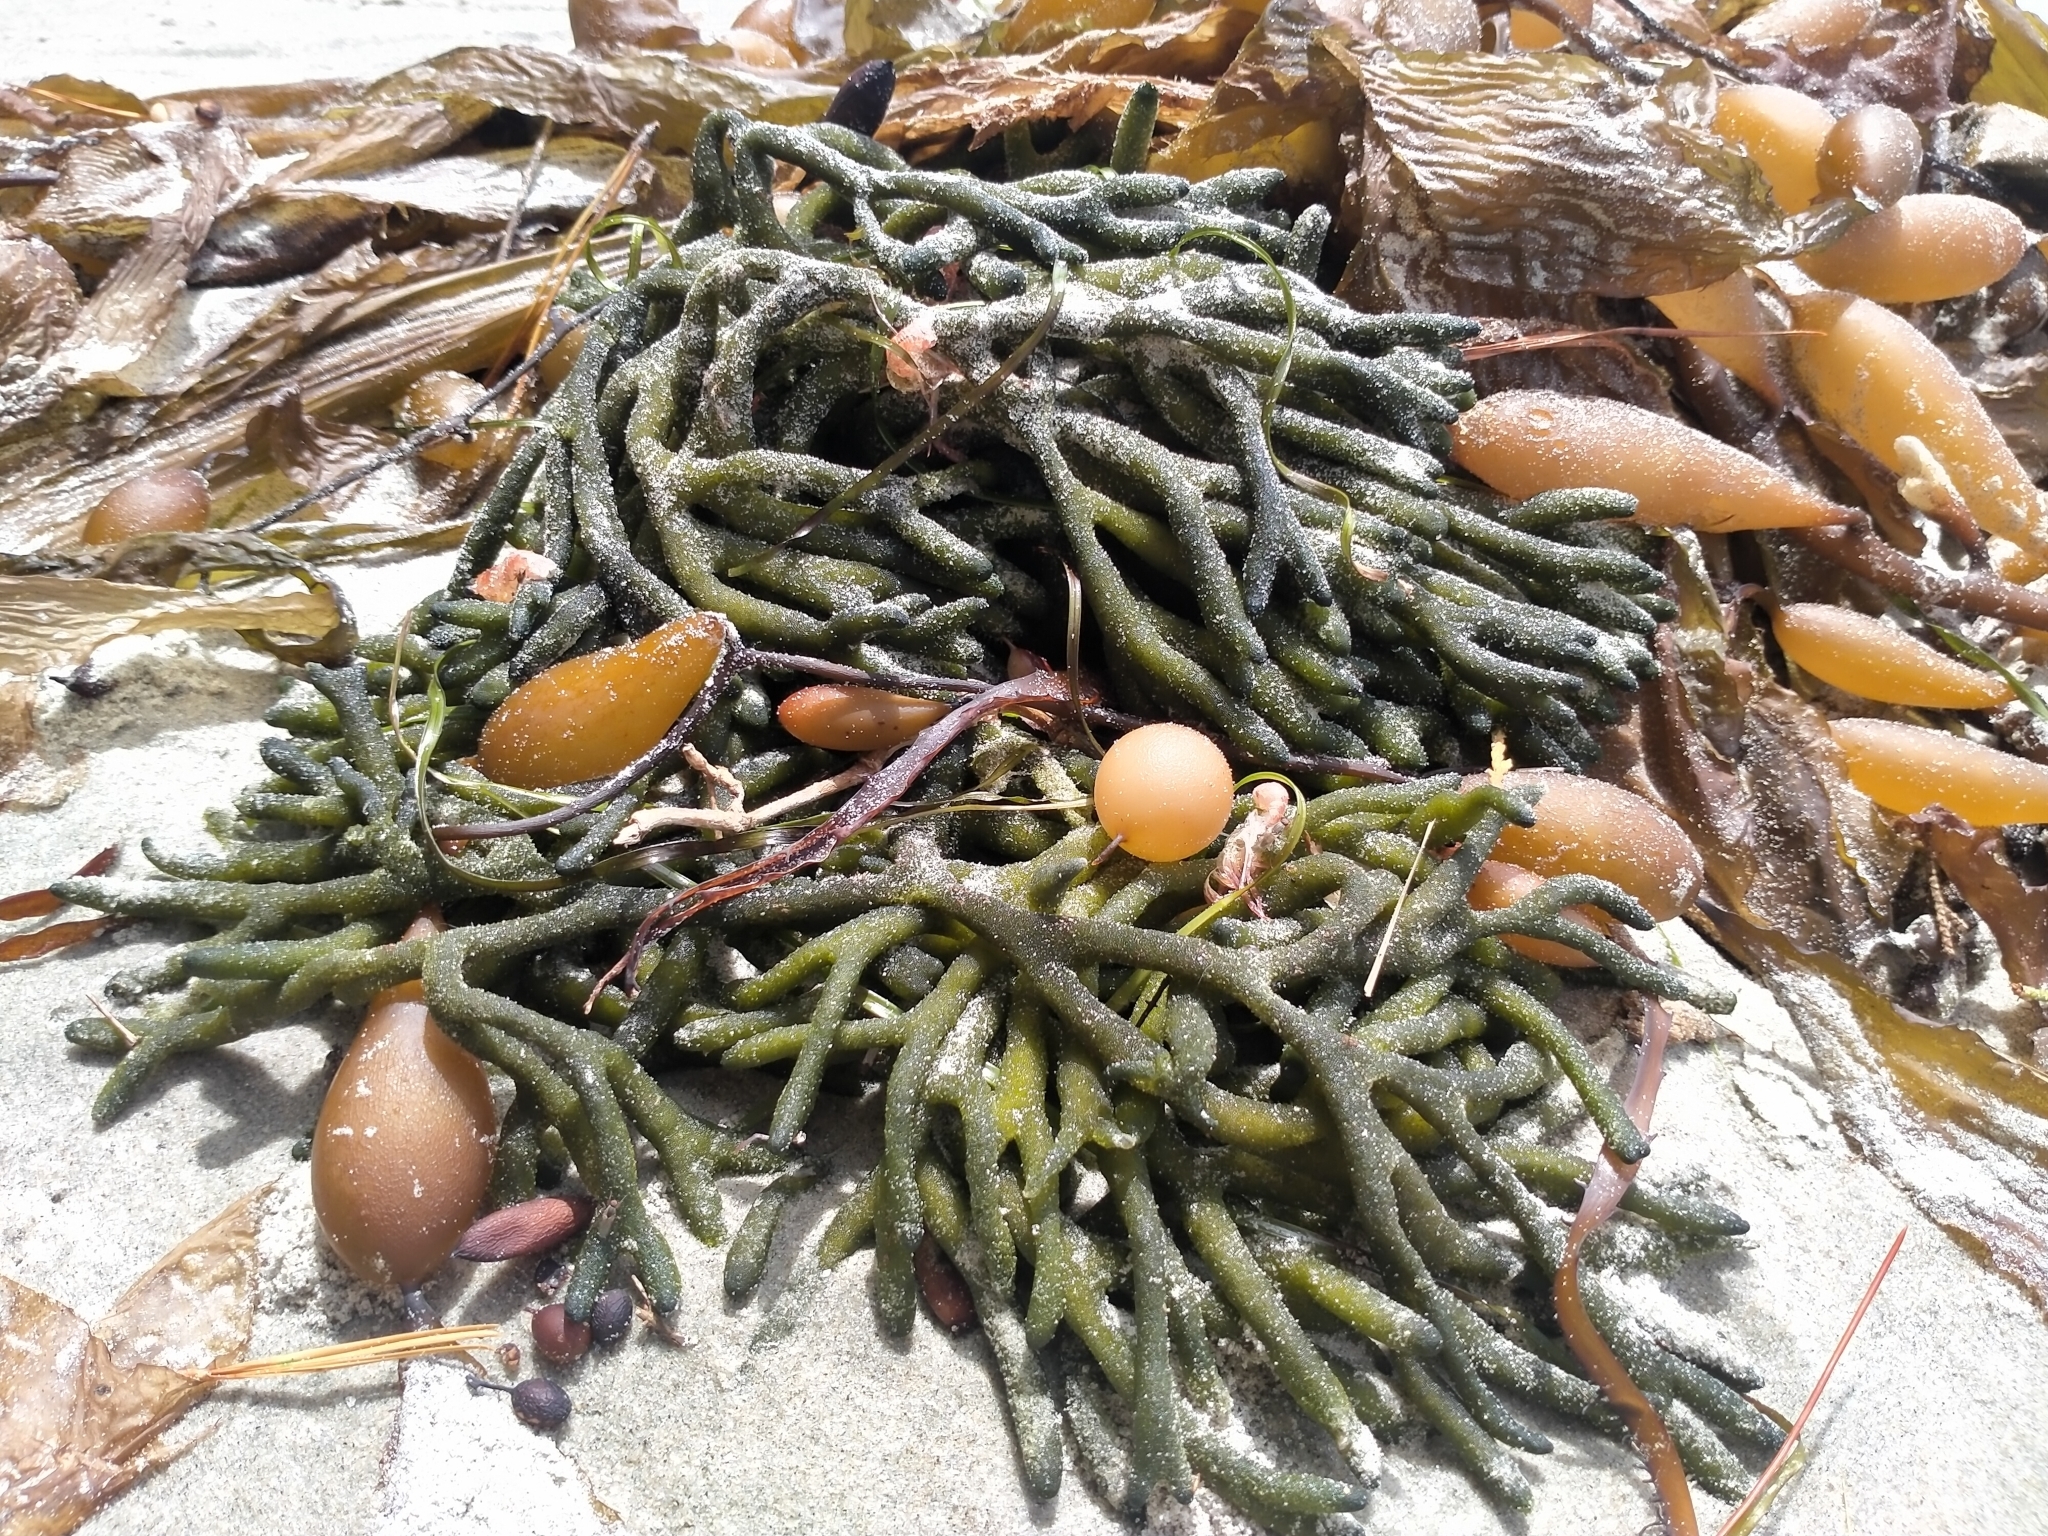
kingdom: Plantae
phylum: Chlorophyta
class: Ulvophyceae
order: Bryopsidales
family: Codiaceae
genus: Codium
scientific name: Codium fragile
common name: Dead man's fingers
